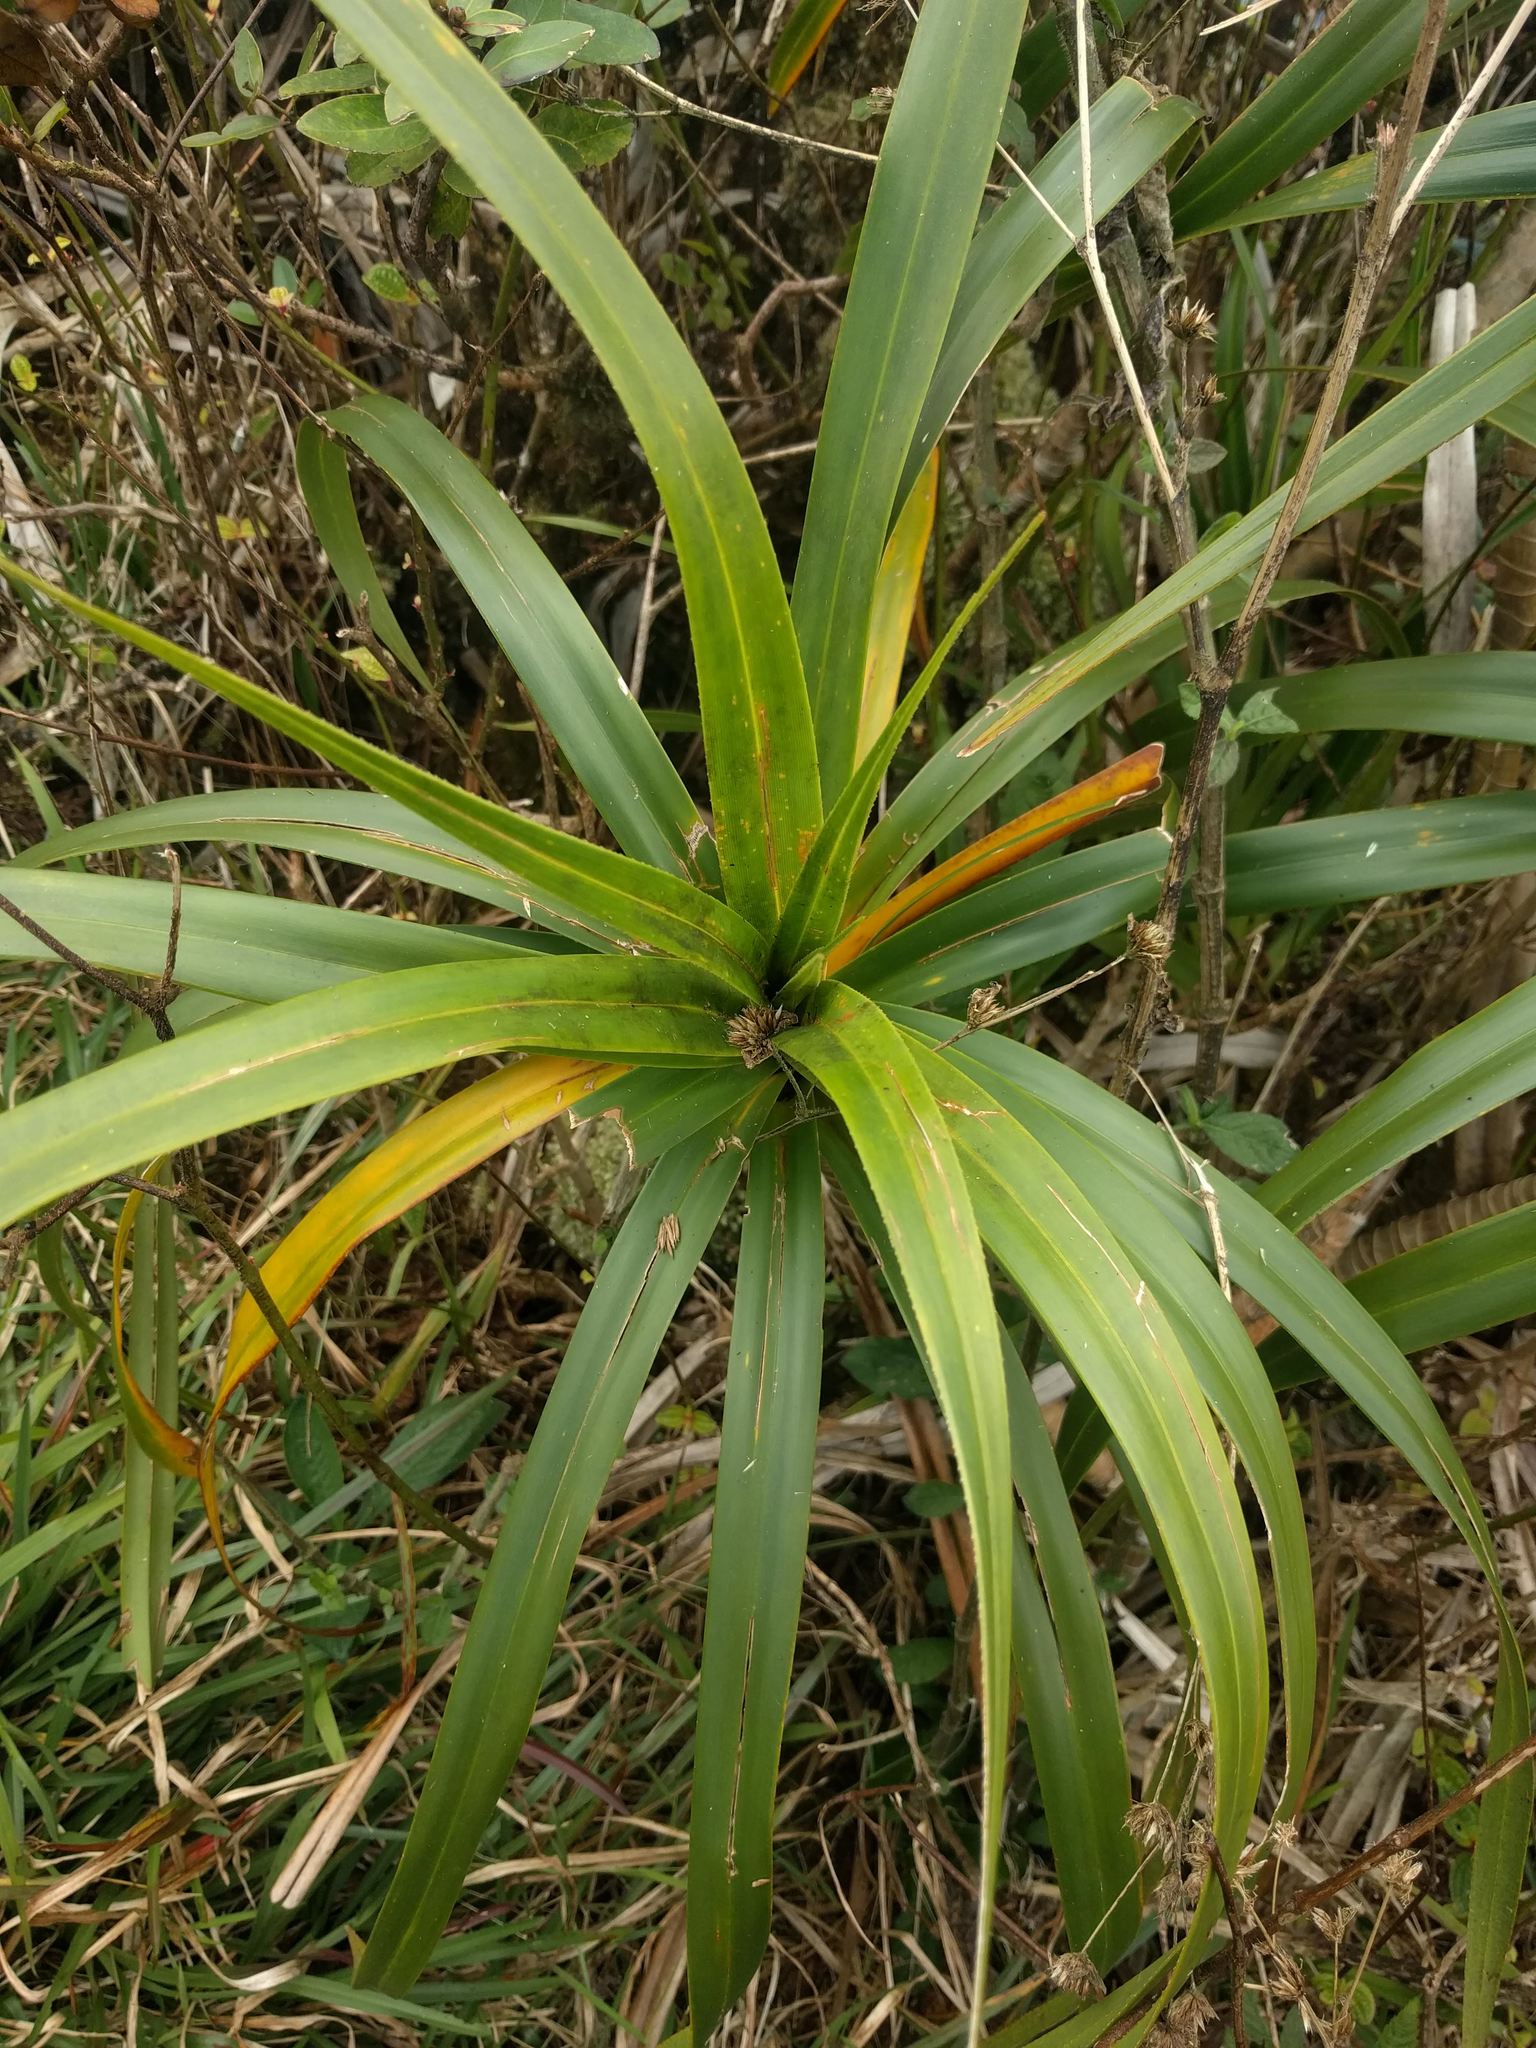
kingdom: Plantae
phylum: Tracheophyta
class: Liliopsida
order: Pandanales
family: Pandanaceae
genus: Freycinetia
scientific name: Freycinetia arborea
